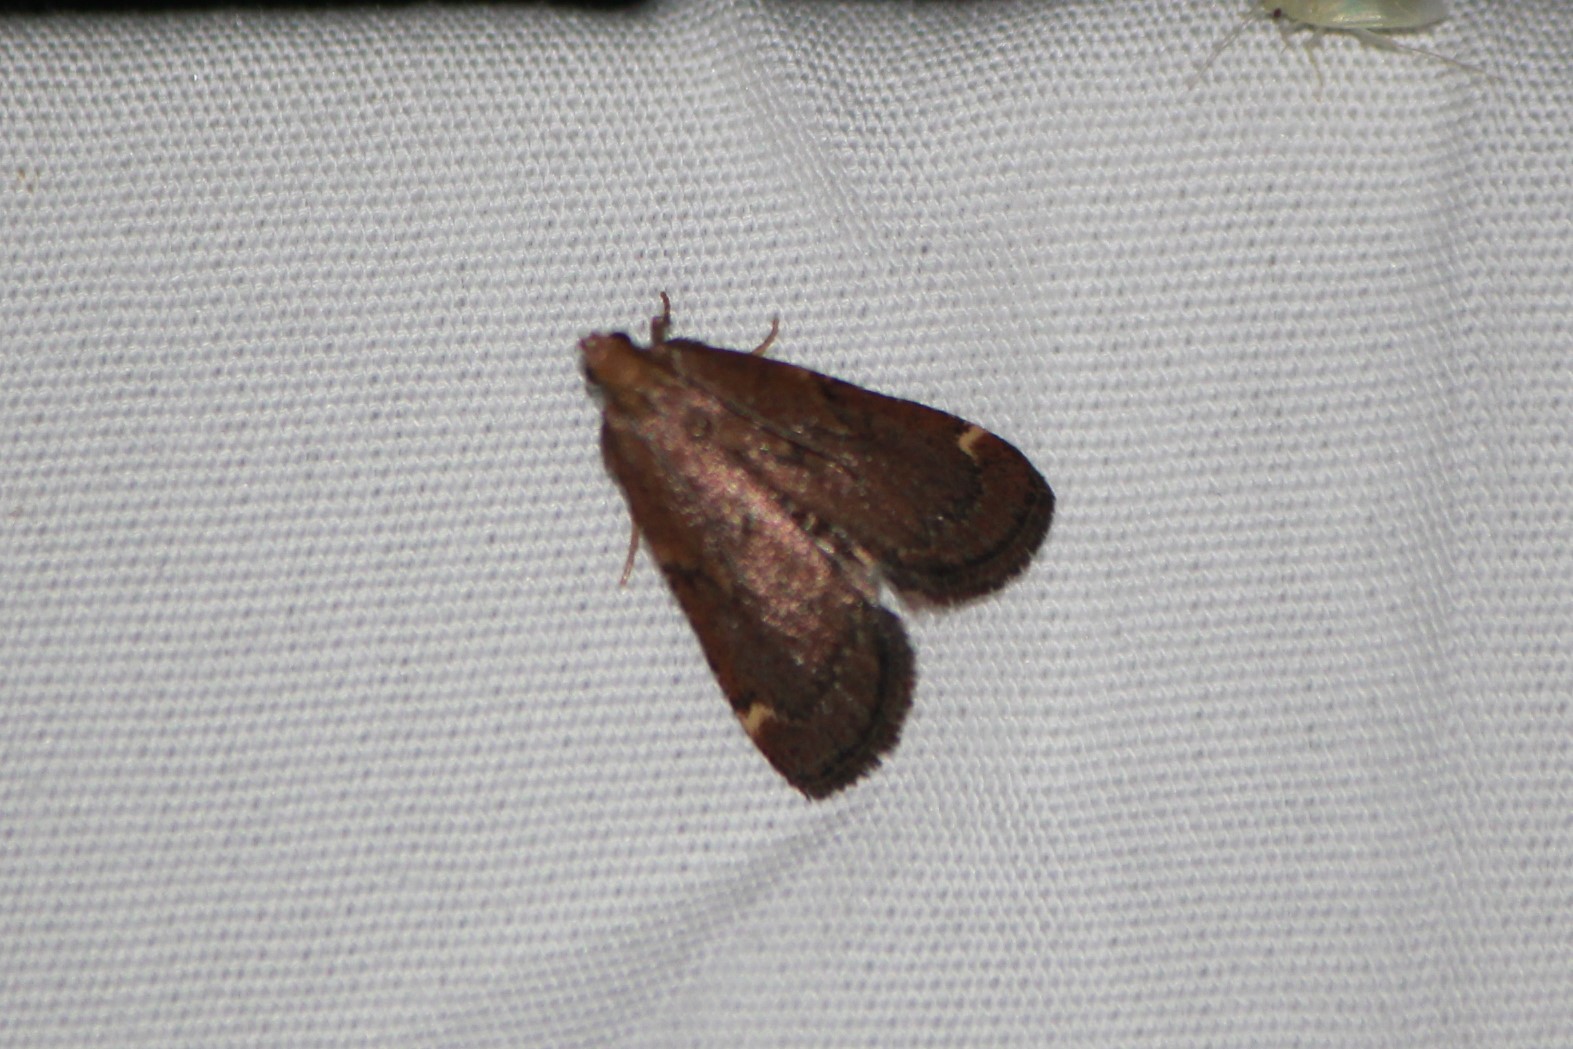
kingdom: Animalia
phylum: Arthropoda
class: Insecta
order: Lepidoptera
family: Pyralidae
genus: Hypsopygia
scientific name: Hypsopygia intermedialis
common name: Red-shawled moth
